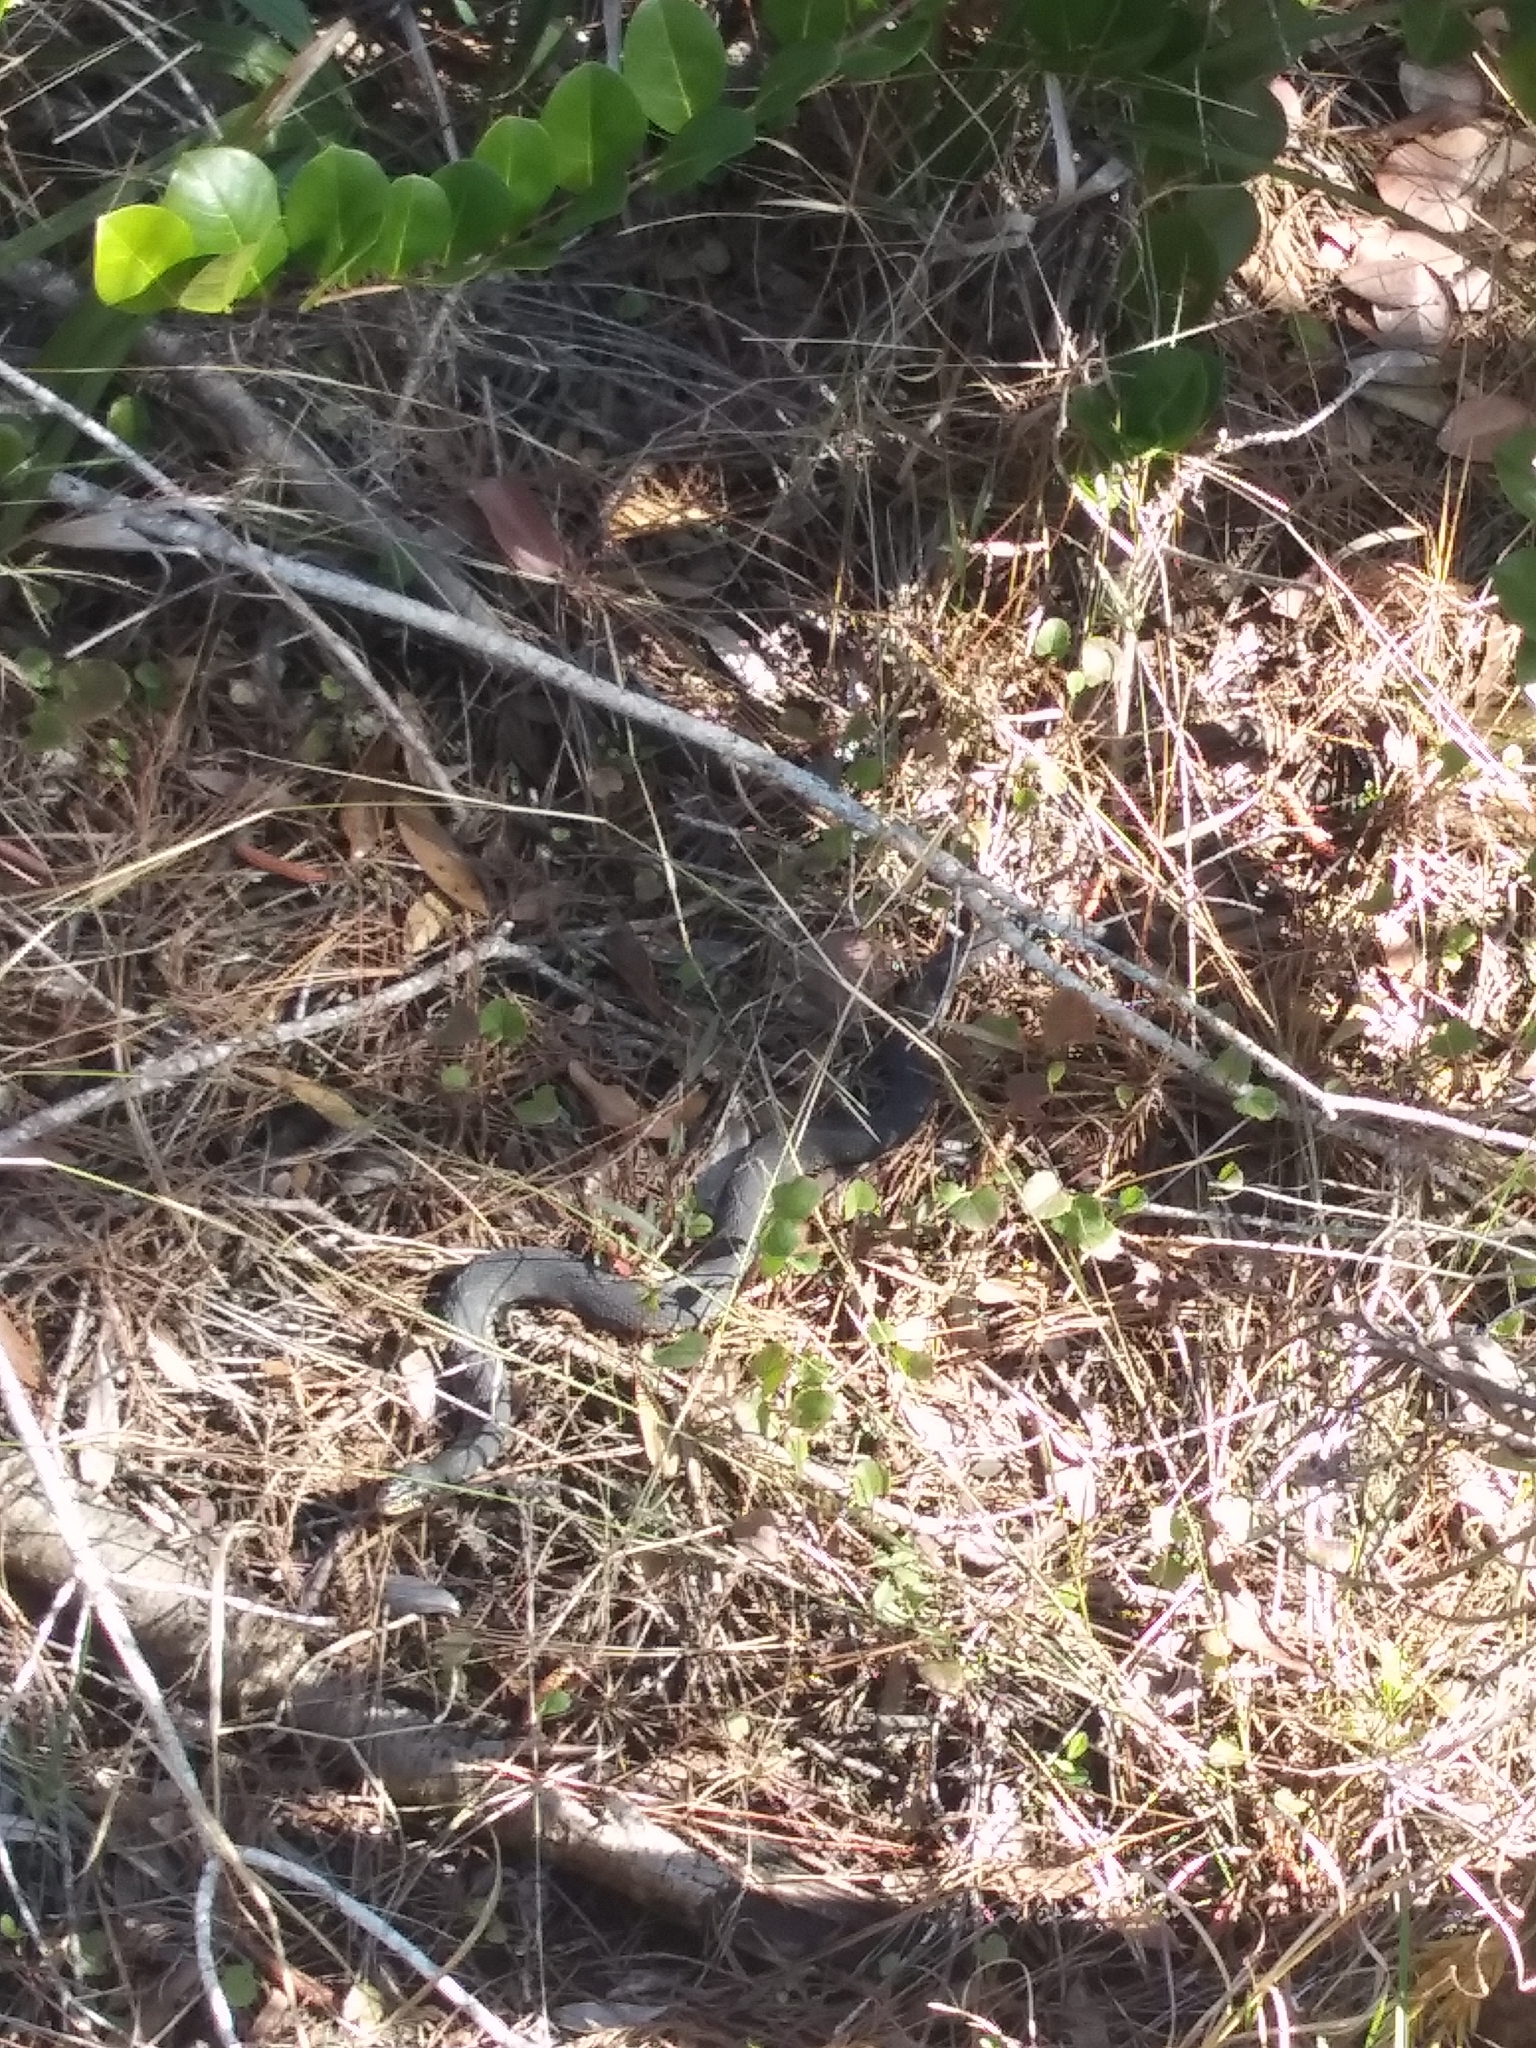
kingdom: Animalia
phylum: Chordata
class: Squamata
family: Colubridae
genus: Nerodia
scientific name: Nerodia fasciata
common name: Southern water snake
